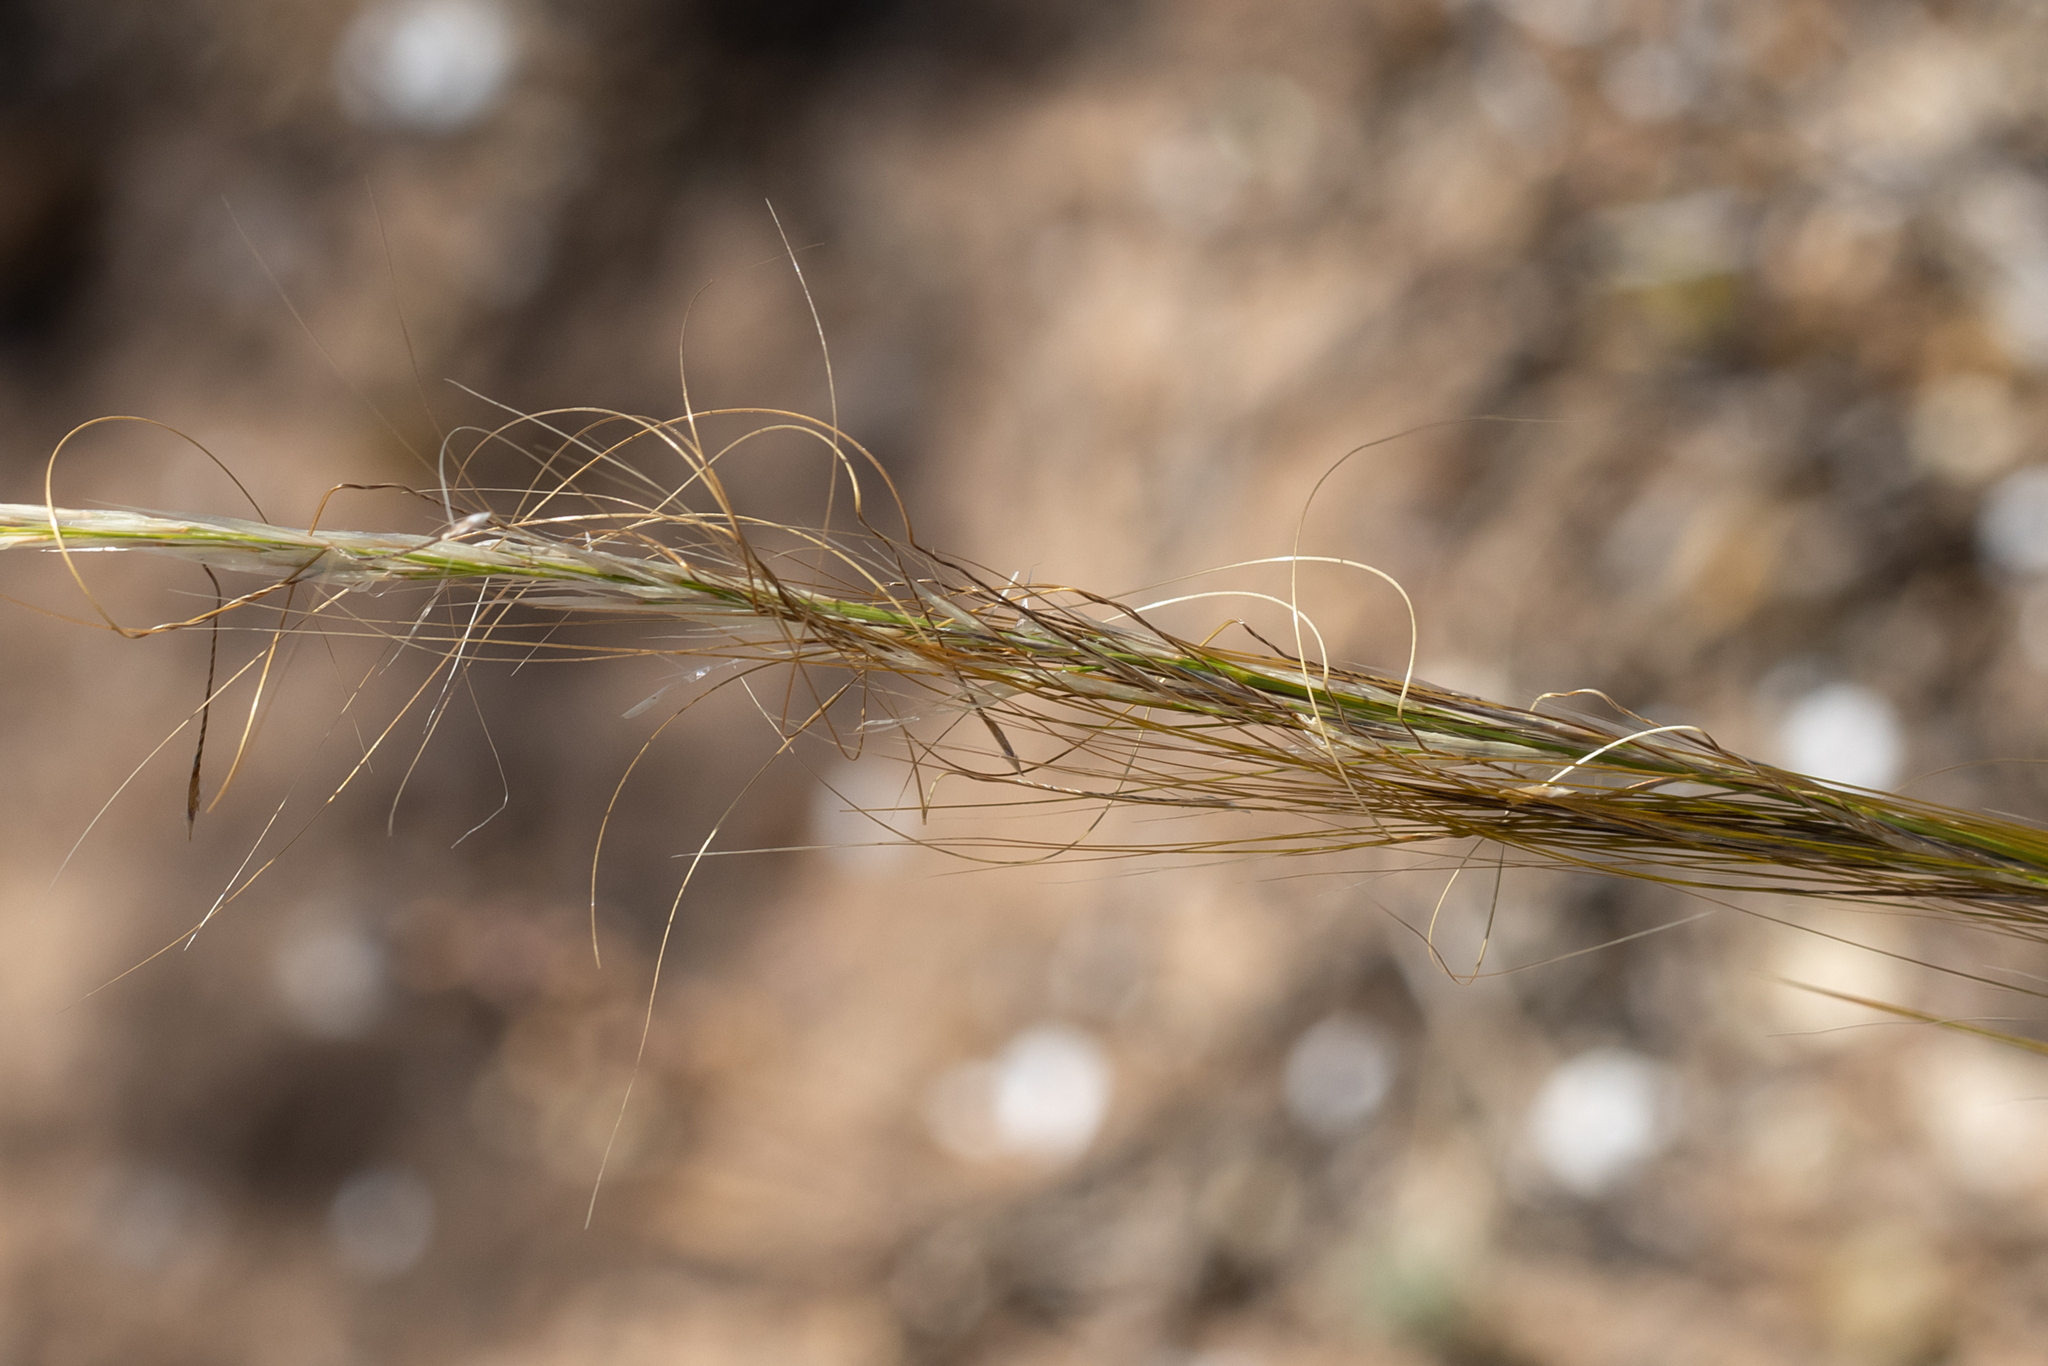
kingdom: Plantae
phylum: Tracheophyta
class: Liliopsida
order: Poales
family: Poaceae
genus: Austrostipa
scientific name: Austrostipa nitida
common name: Balcarra grass
